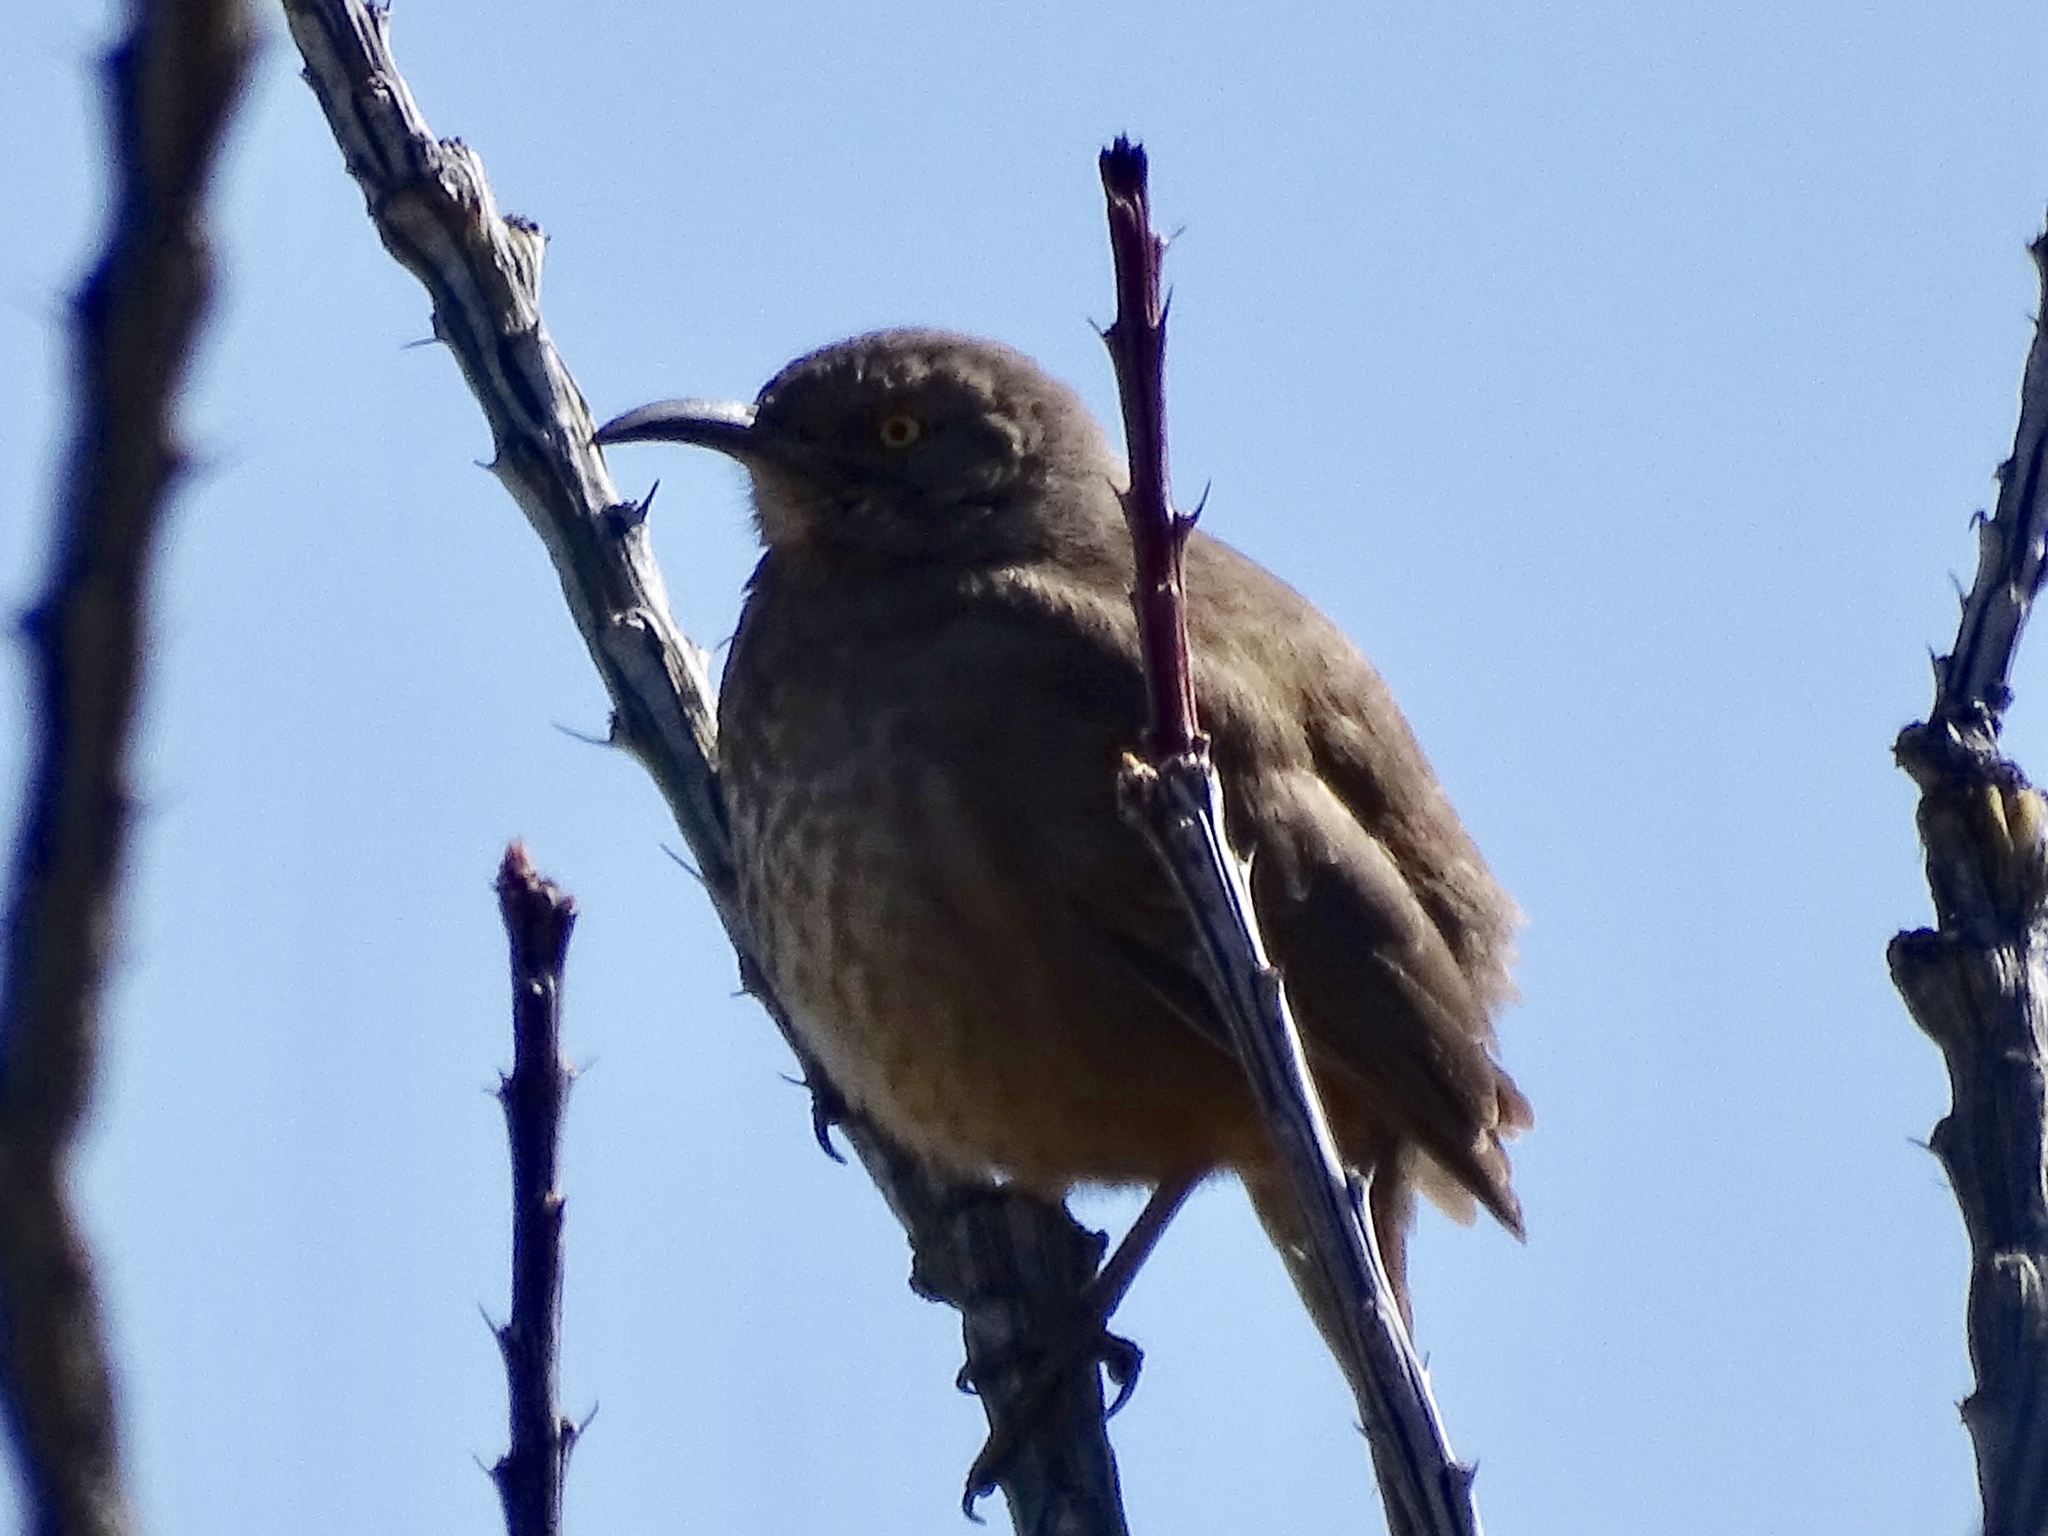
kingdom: Animalia
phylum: Chordata
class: Aves
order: Passeriformes
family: Mimidae
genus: Toxostoma
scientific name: Toxostoma curvirostre
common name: Curve-billed thrasher
